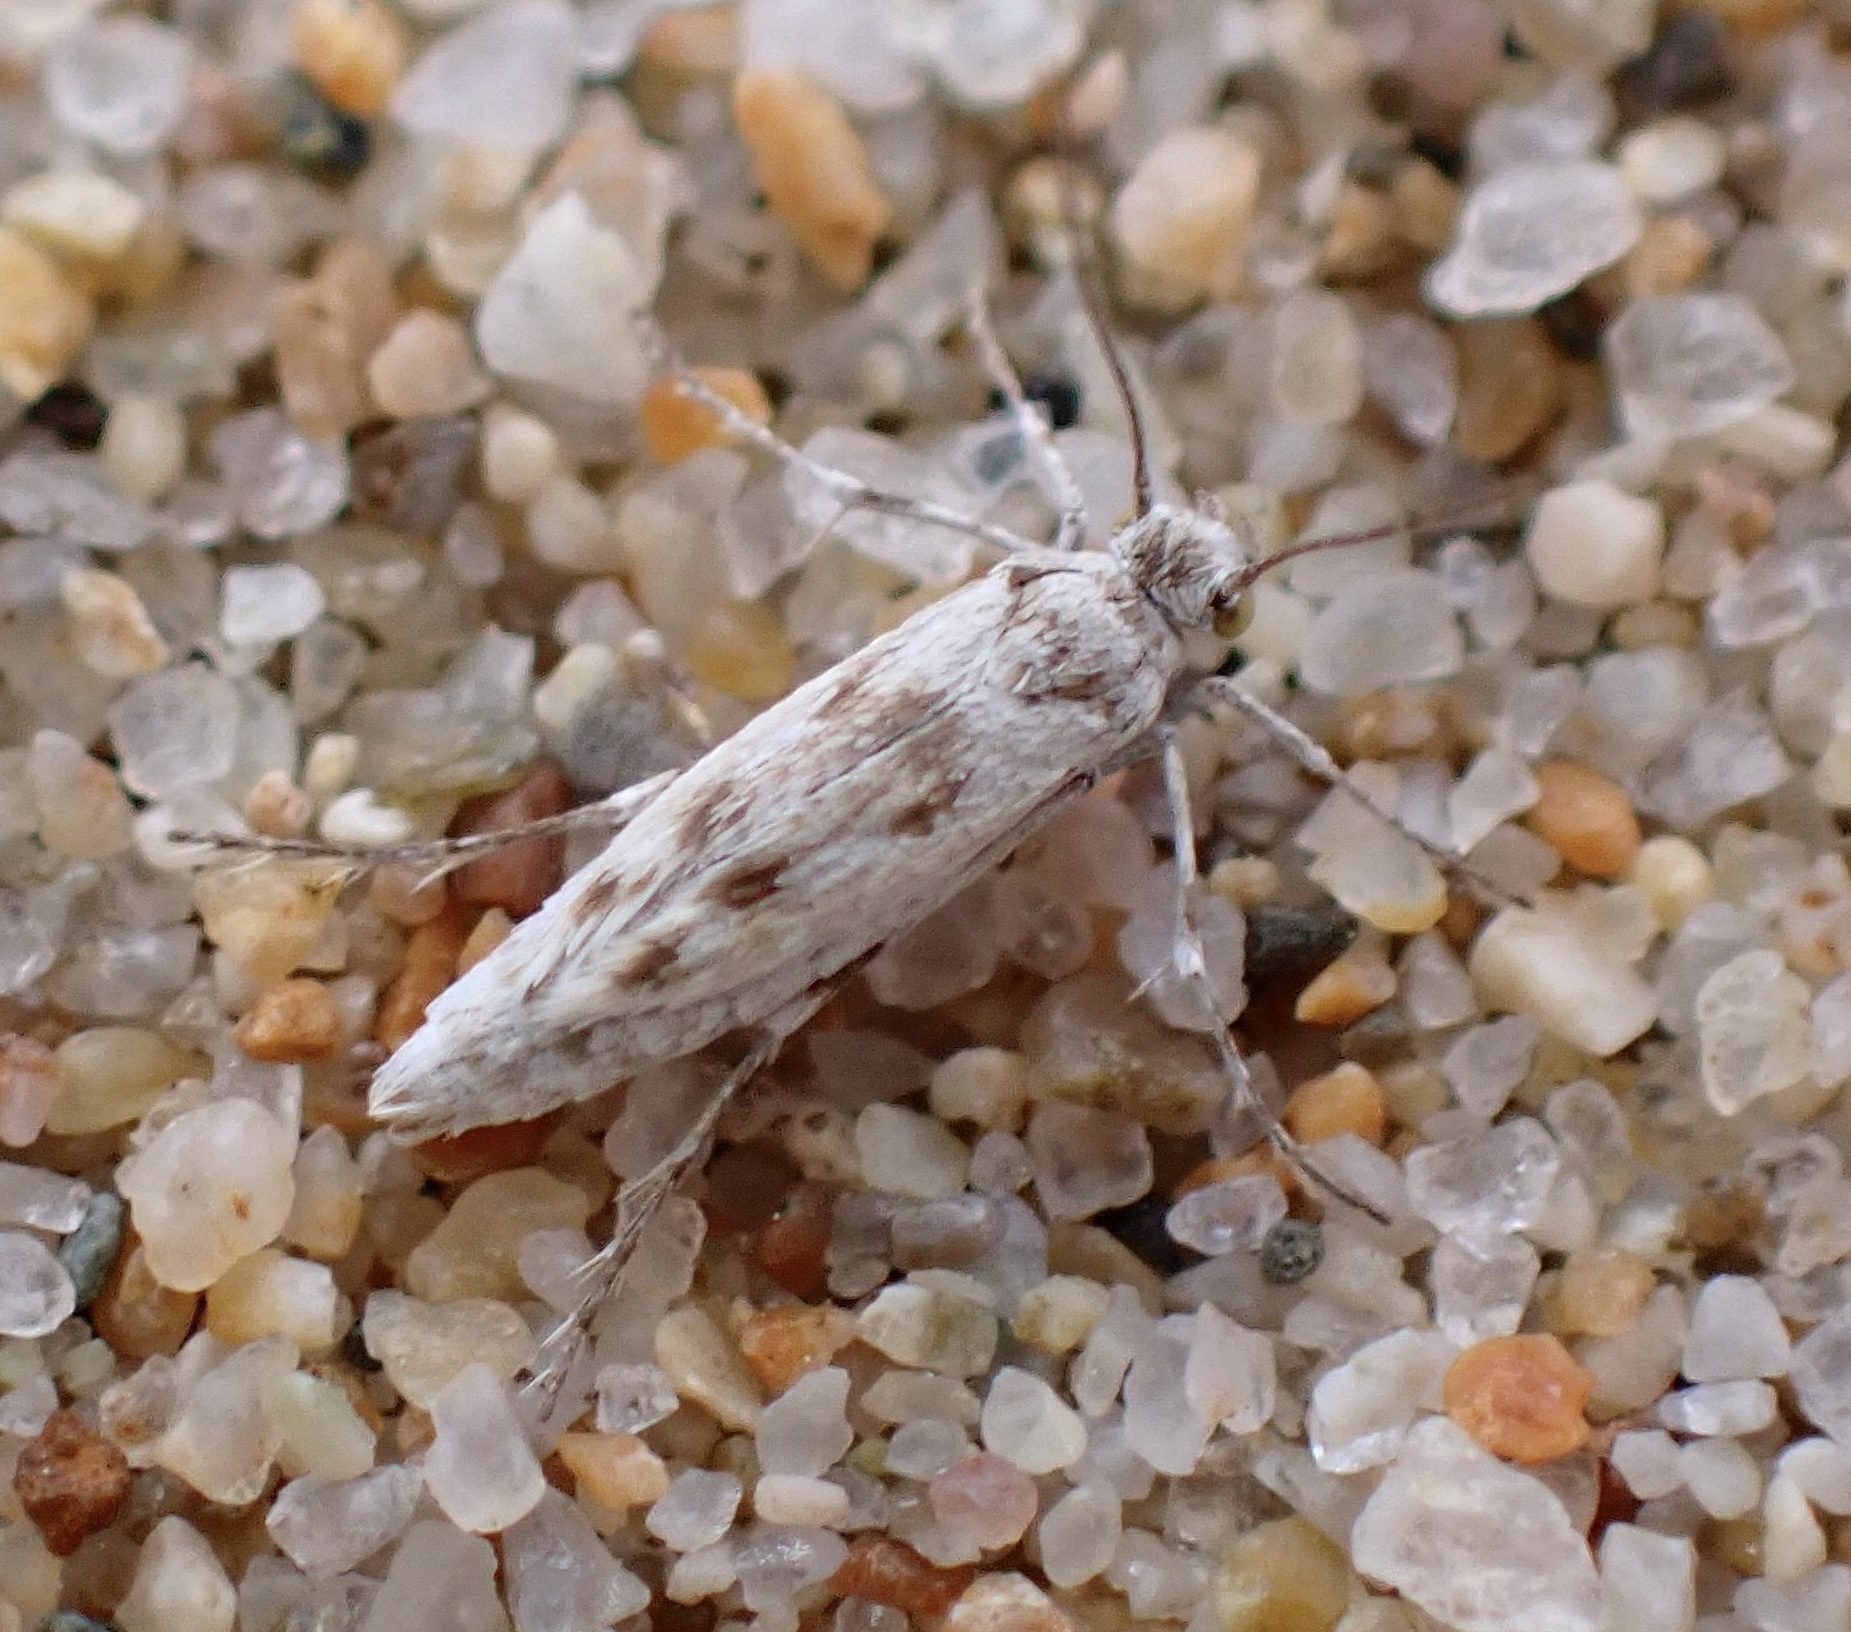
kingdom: Animalia
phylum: Arthropoda
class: Insecta
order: Lepidoptera
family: Scythrididae
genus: Areniscythris
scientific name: Areniscythris brachypteris
